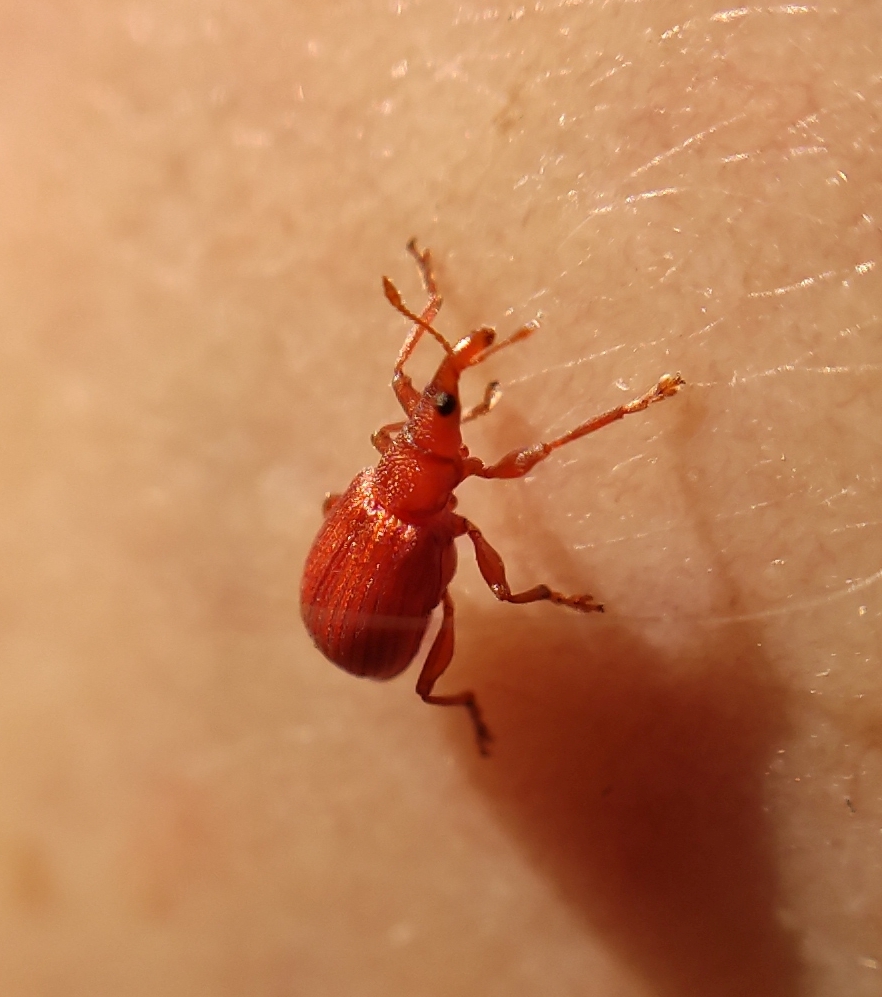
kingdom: Animalia
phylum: Arthropoda
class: Insecta
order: Coleoptera
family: Apionidae
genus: Apion
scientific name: Apion frumentarium
